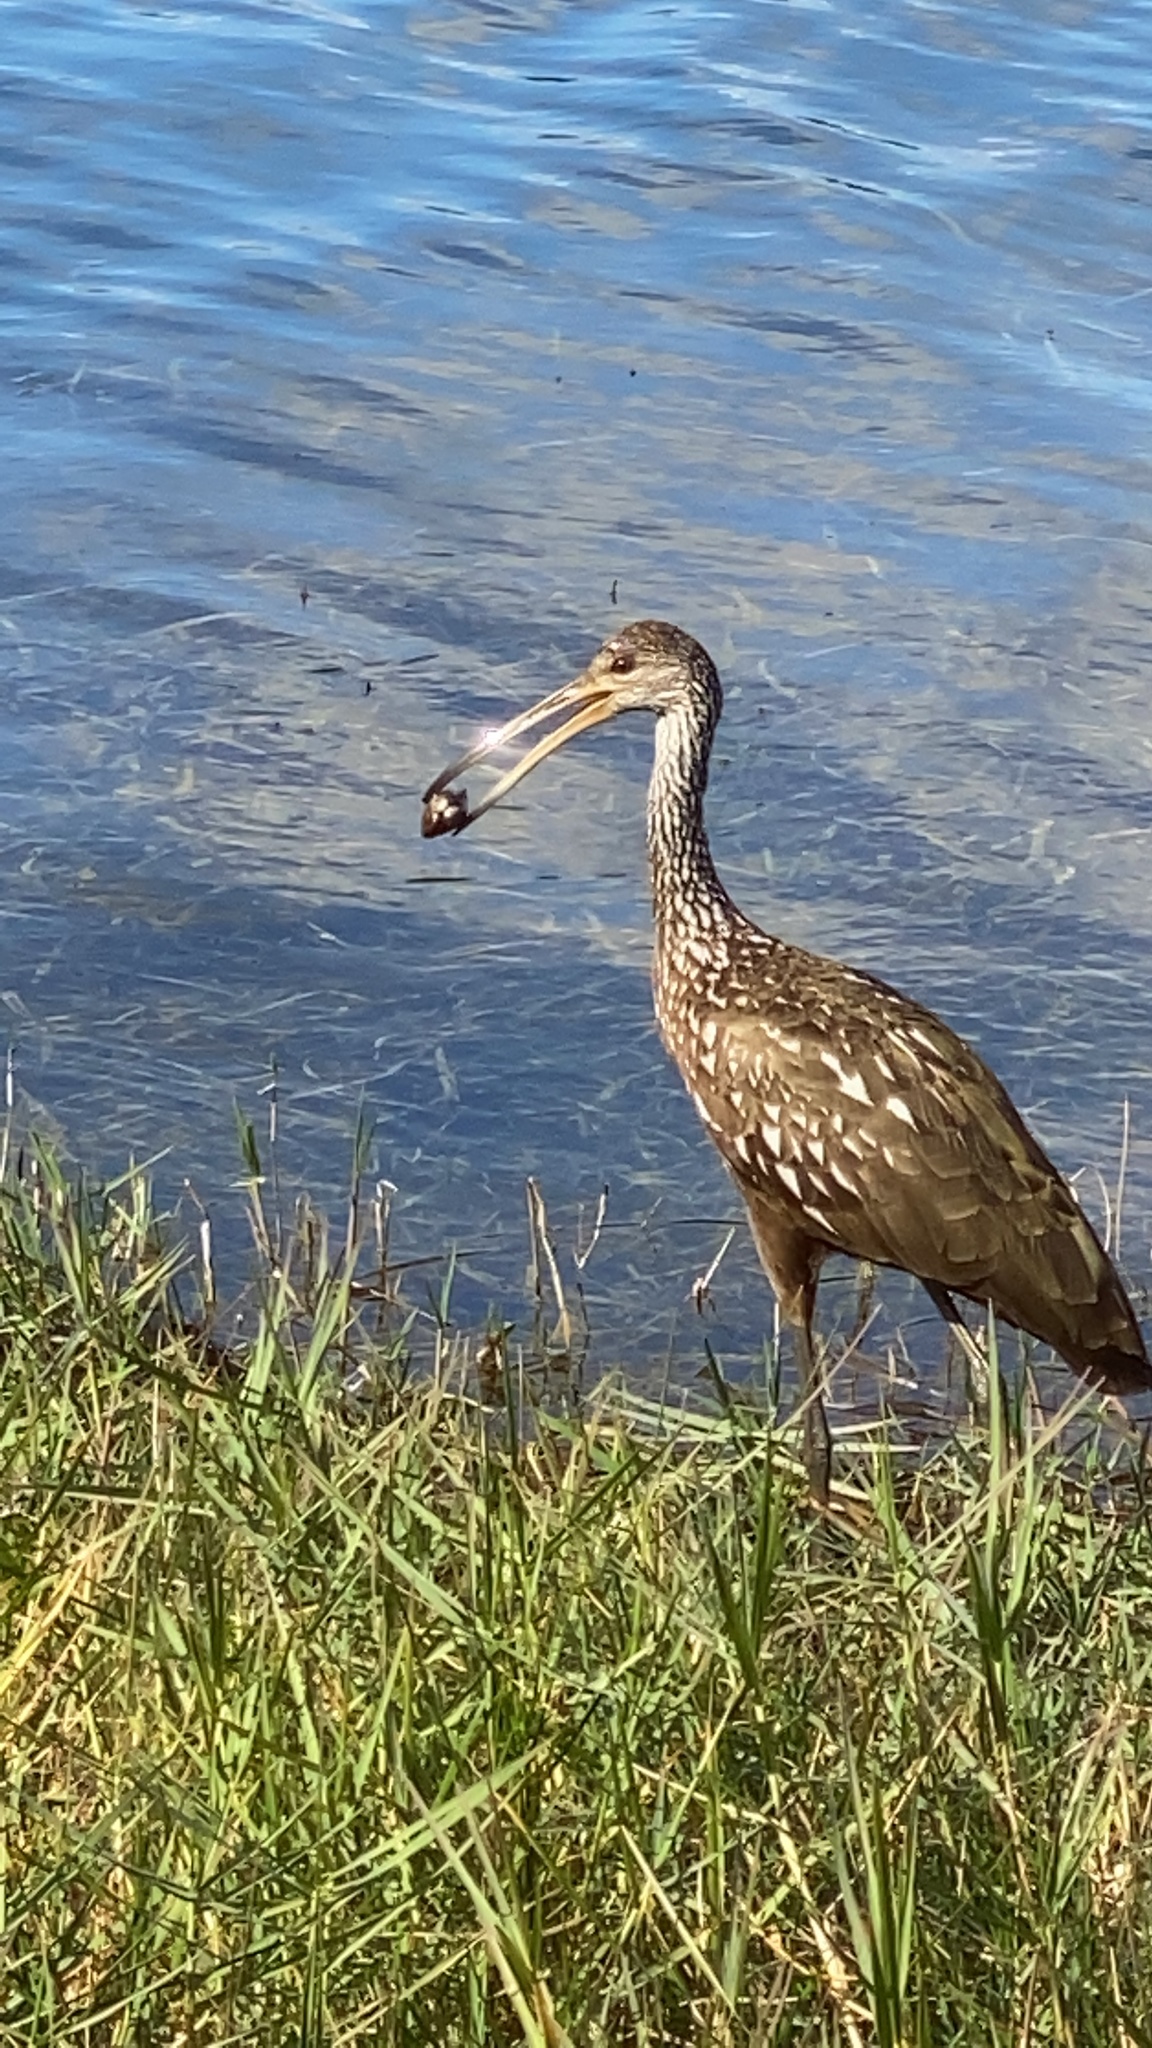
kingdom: Animalia
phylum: Chordata
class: Aves
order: Gruiformes
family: Aramidae
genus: Aramus
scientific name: Aramus guarauna
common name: Limpkin
